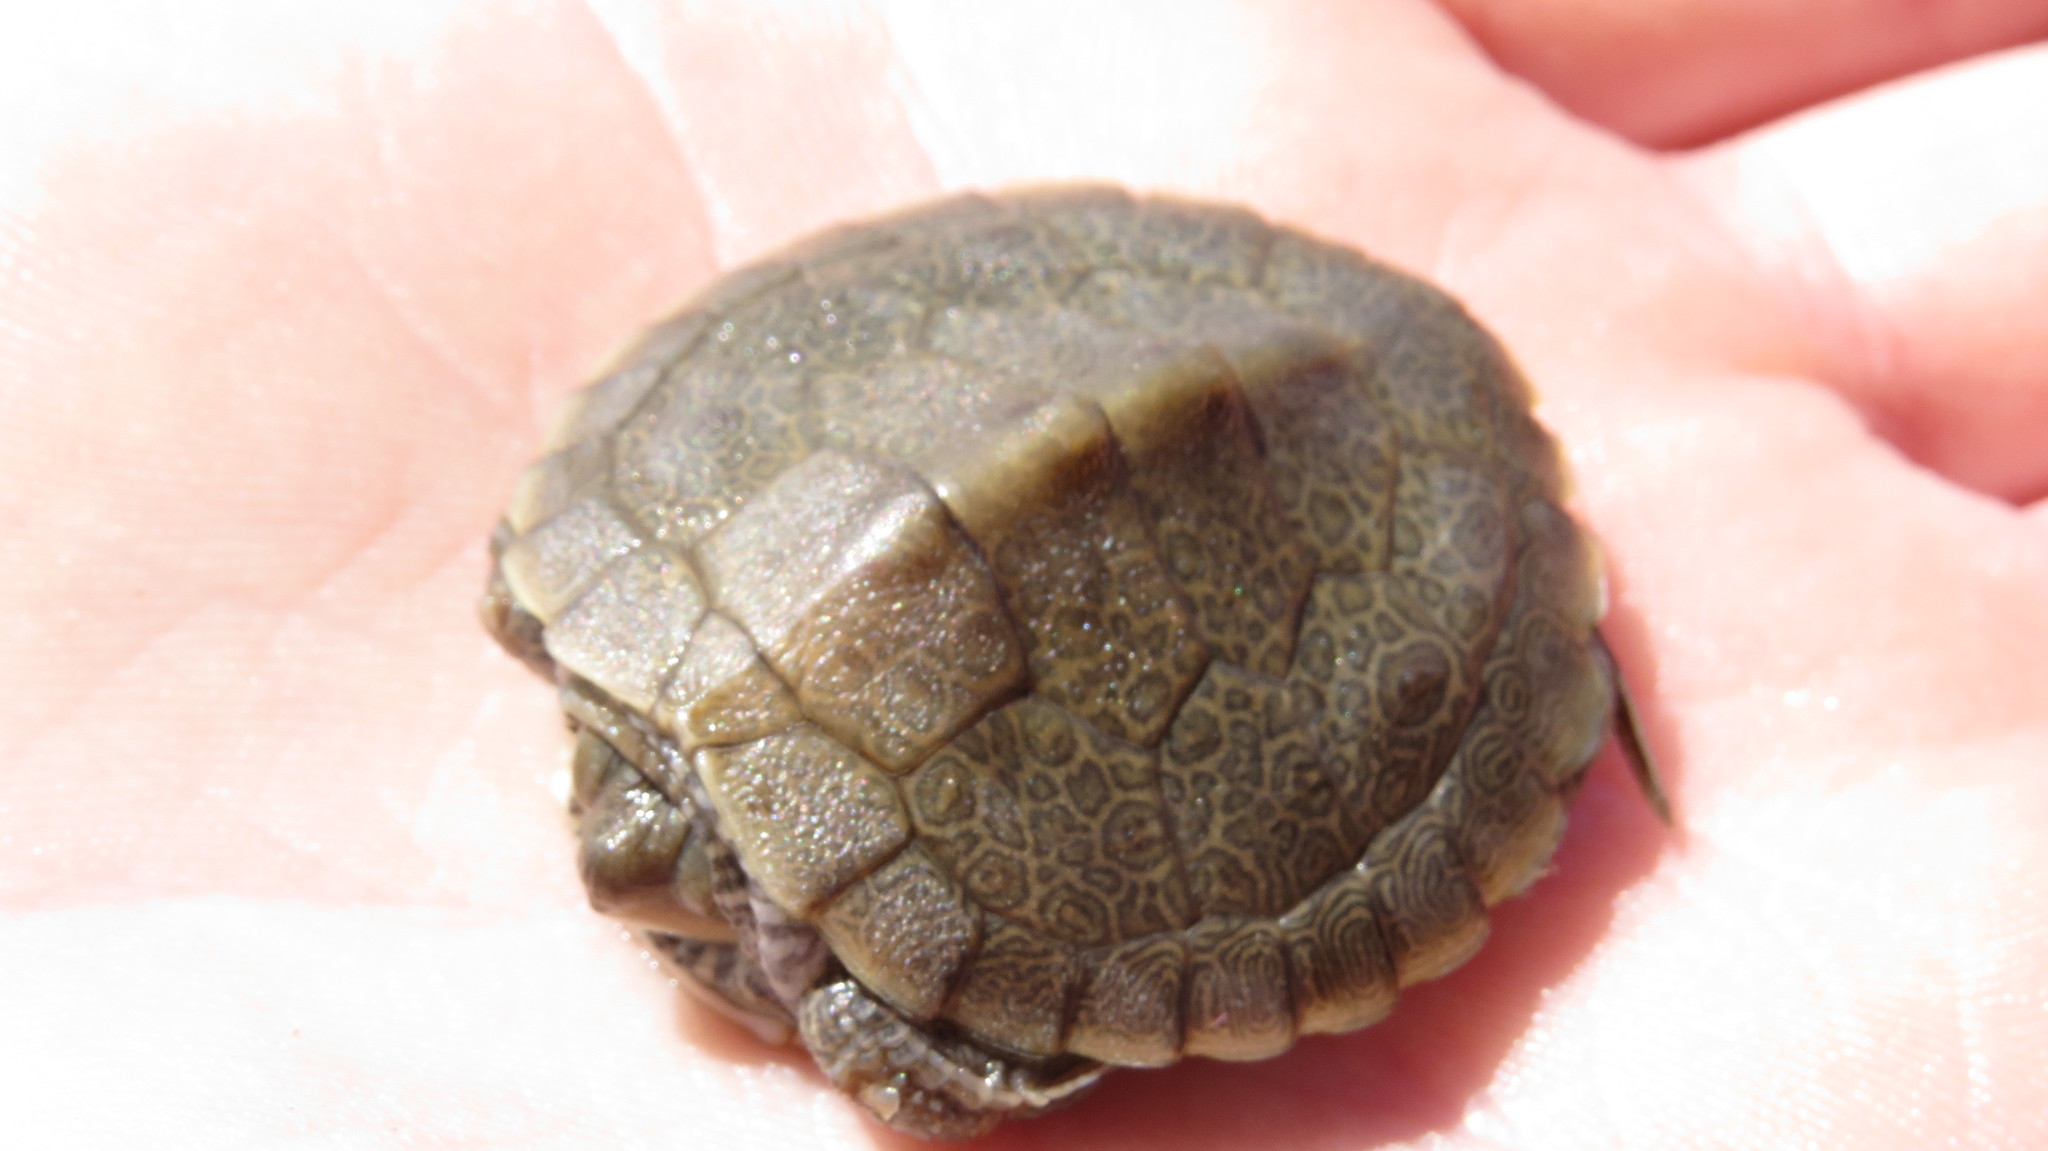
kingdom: Animalia
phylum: Chordata
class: Testudines
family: Emydidae
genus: Graptemys
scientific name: Graptemys geographica
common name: Common map turtle
